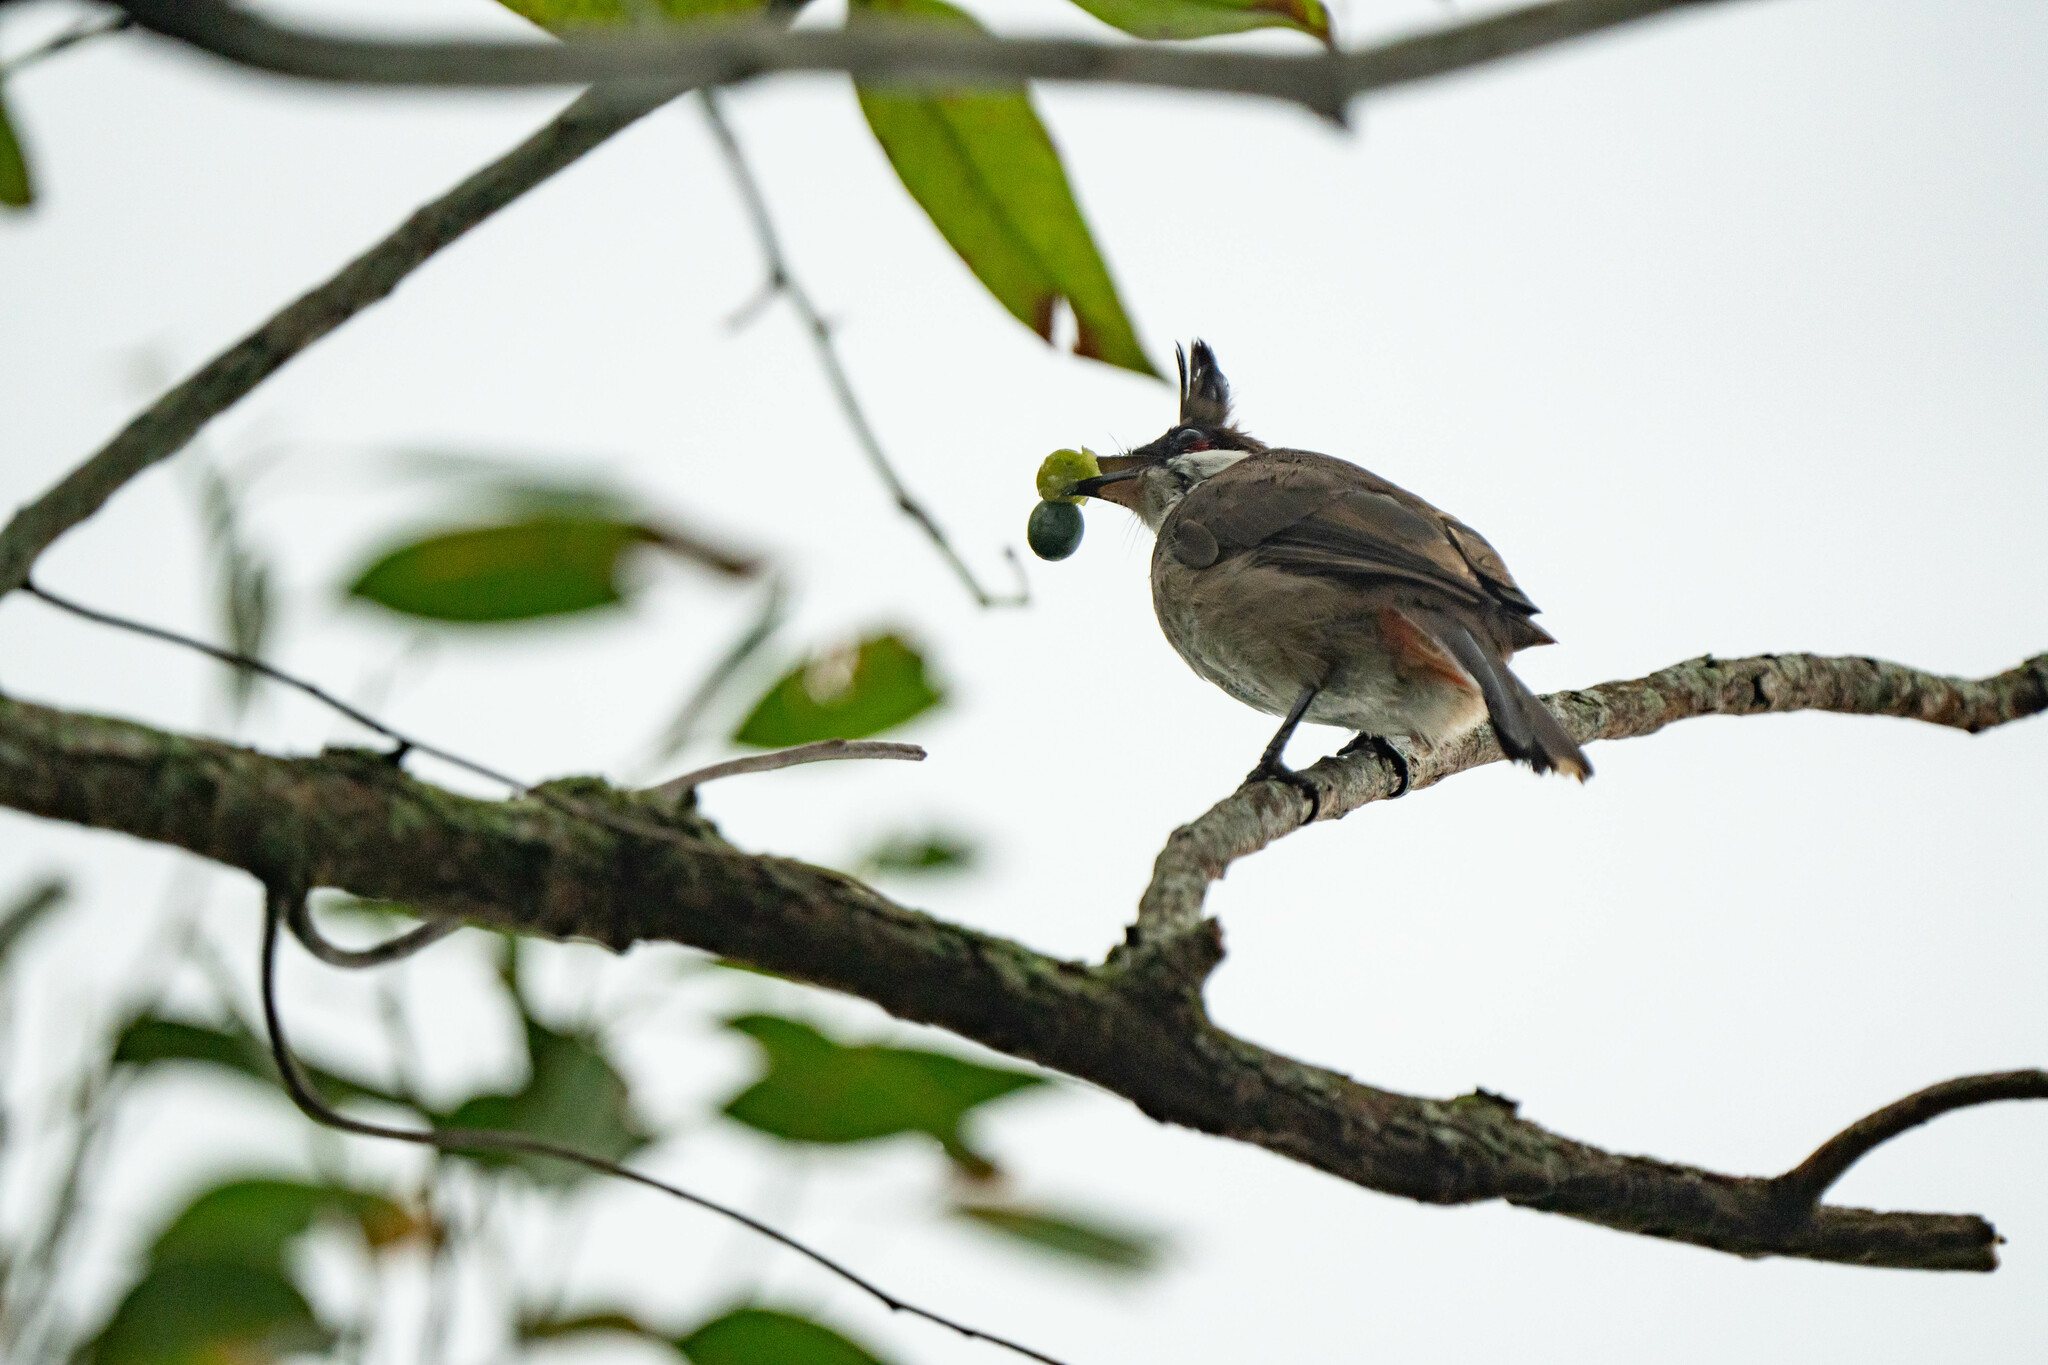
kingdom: Animalia
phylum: Chordata
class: Aves
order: Passeriformes
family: Pycnonotidae
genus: Pycnonotus
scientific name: Pycnonotus jocosus
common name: Red-whiskered bulbul
